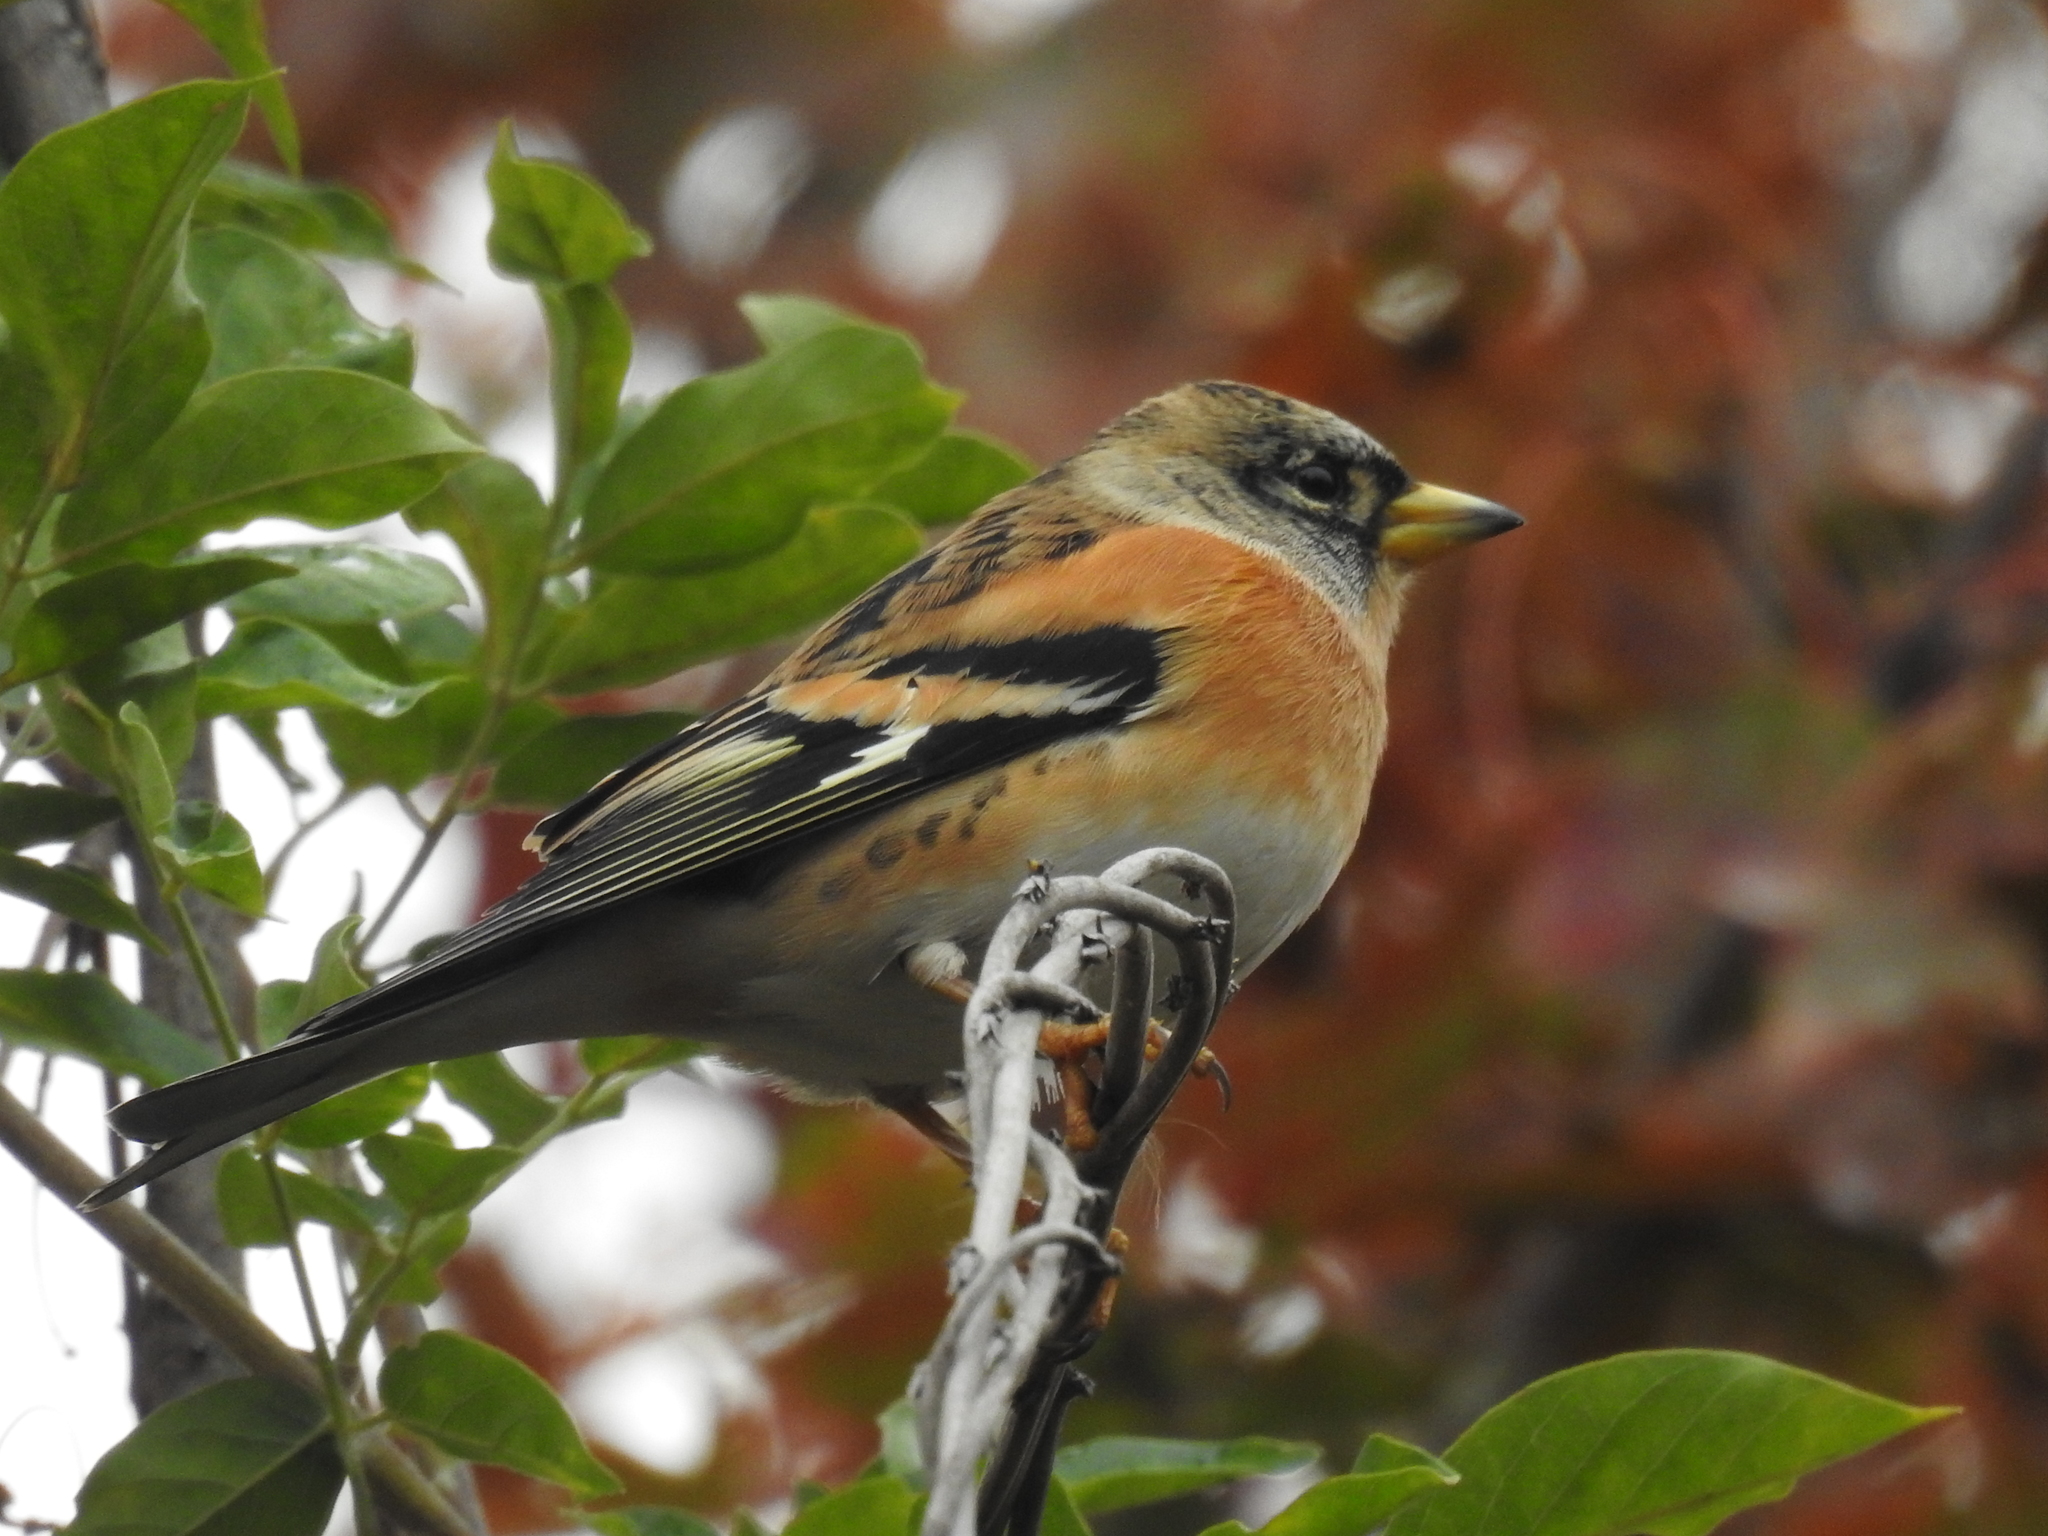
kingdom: Animalia
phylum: Chordata
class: Aves
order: Passeriformes
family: Fringillidae
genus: Fringilla
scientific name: Fringilla montifringilla
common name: Brambling
